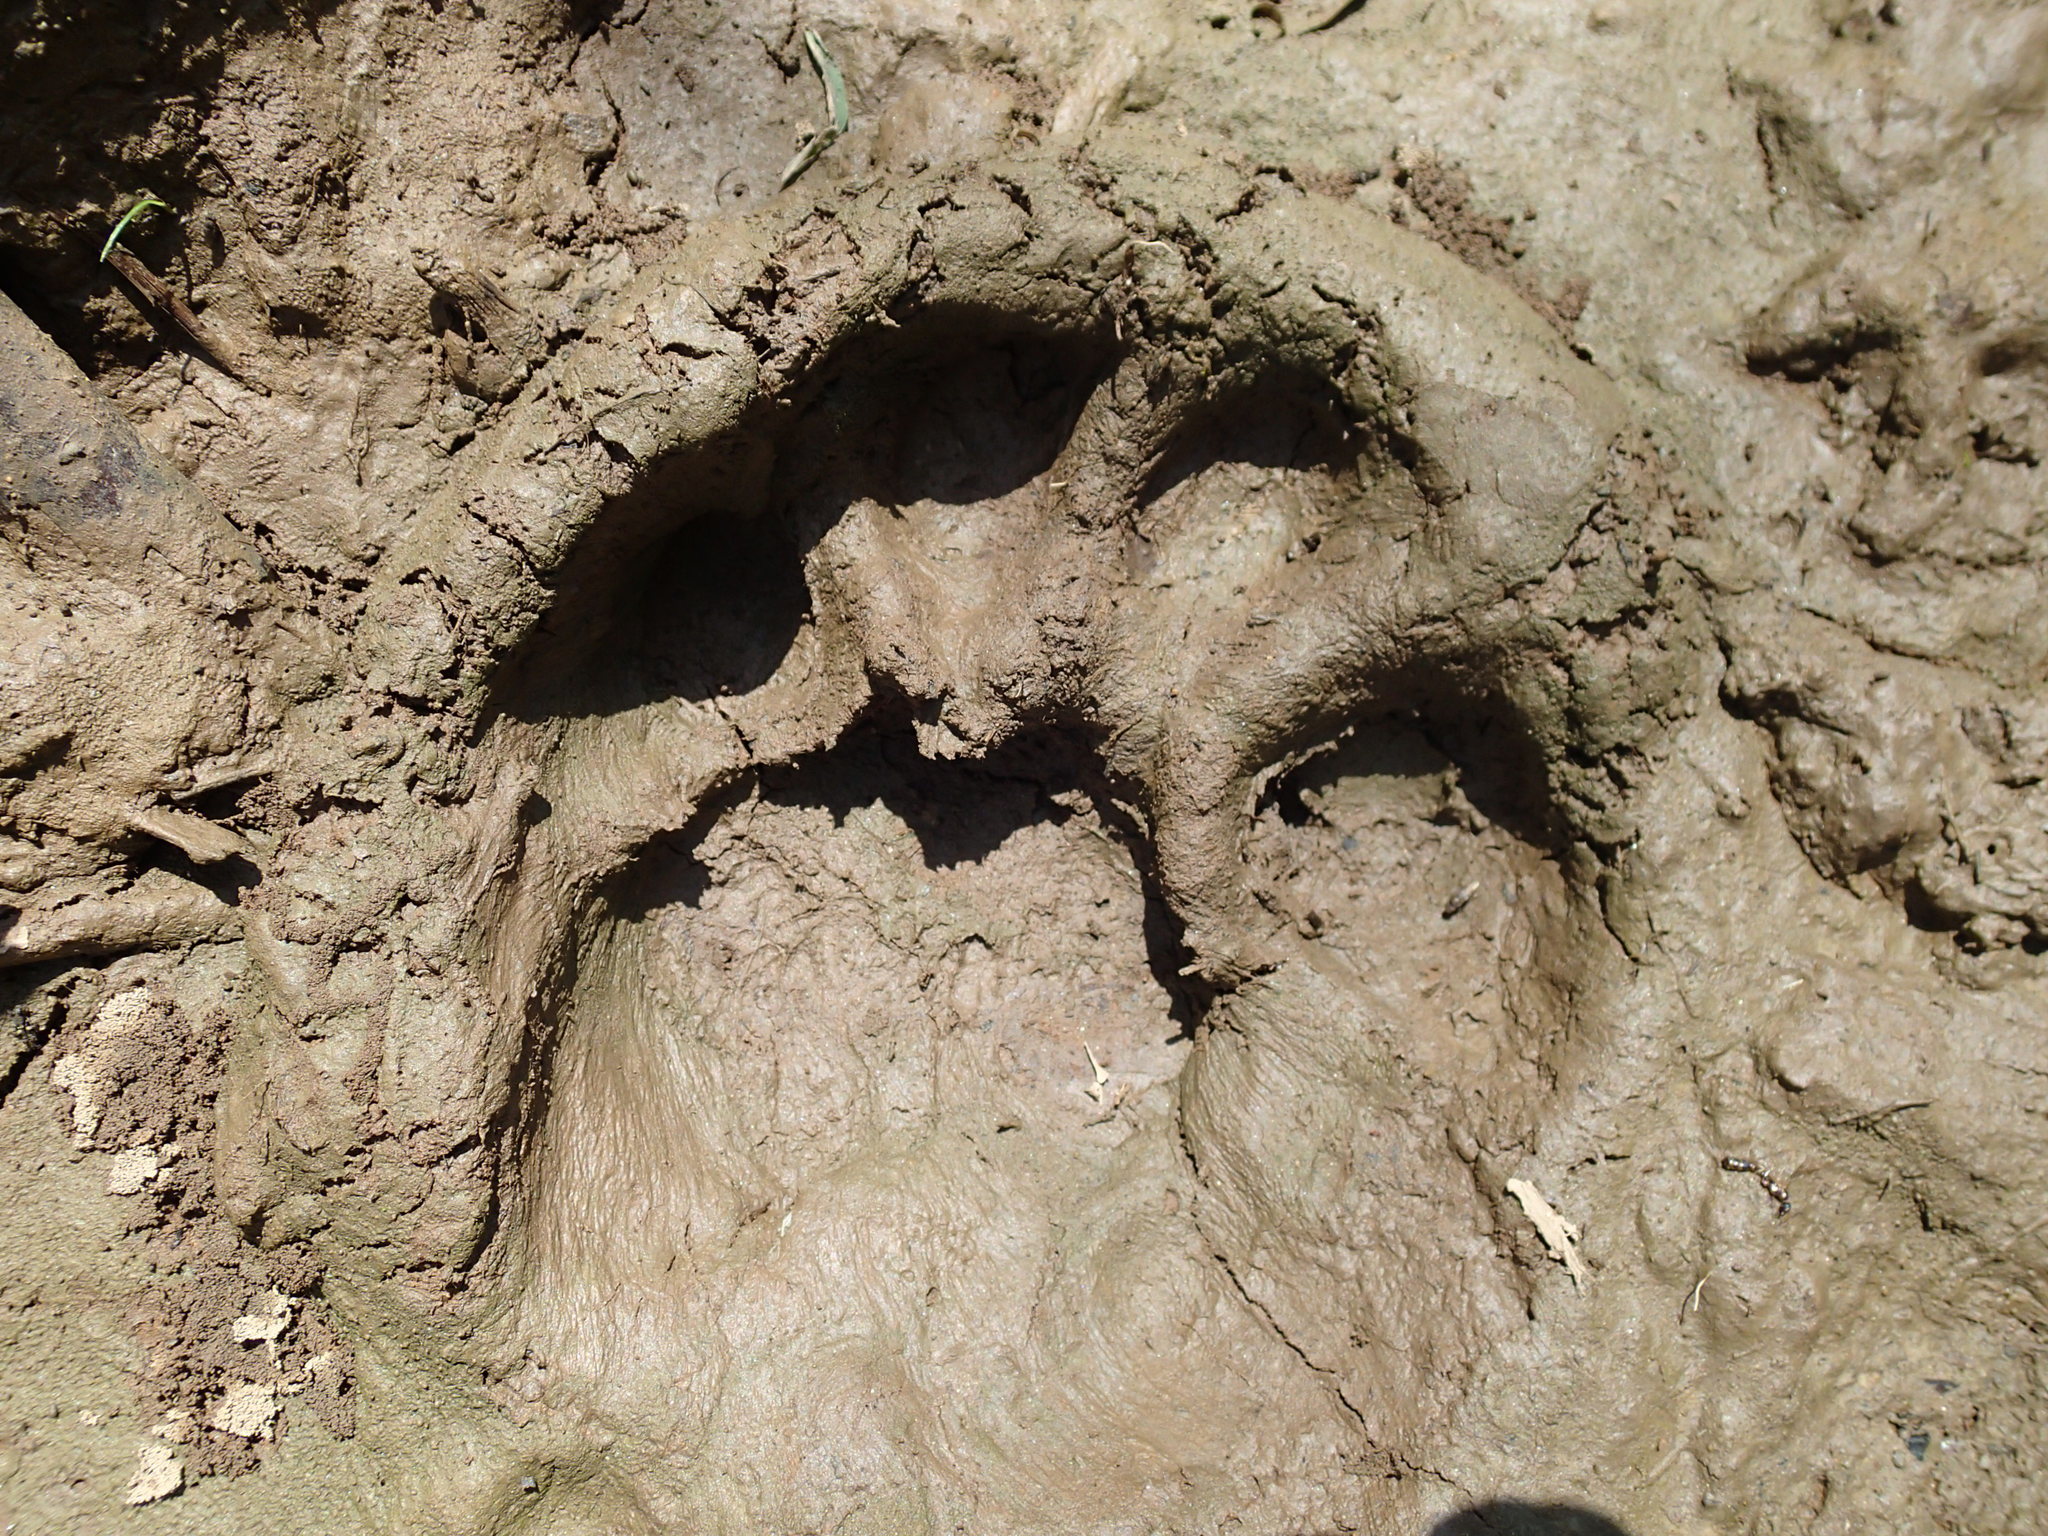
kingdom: Animalia
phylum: Chordata
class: Mammalia
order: Carnivora
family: Felidae
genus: Panthera
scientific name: Panthera onca
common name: Jaguar
